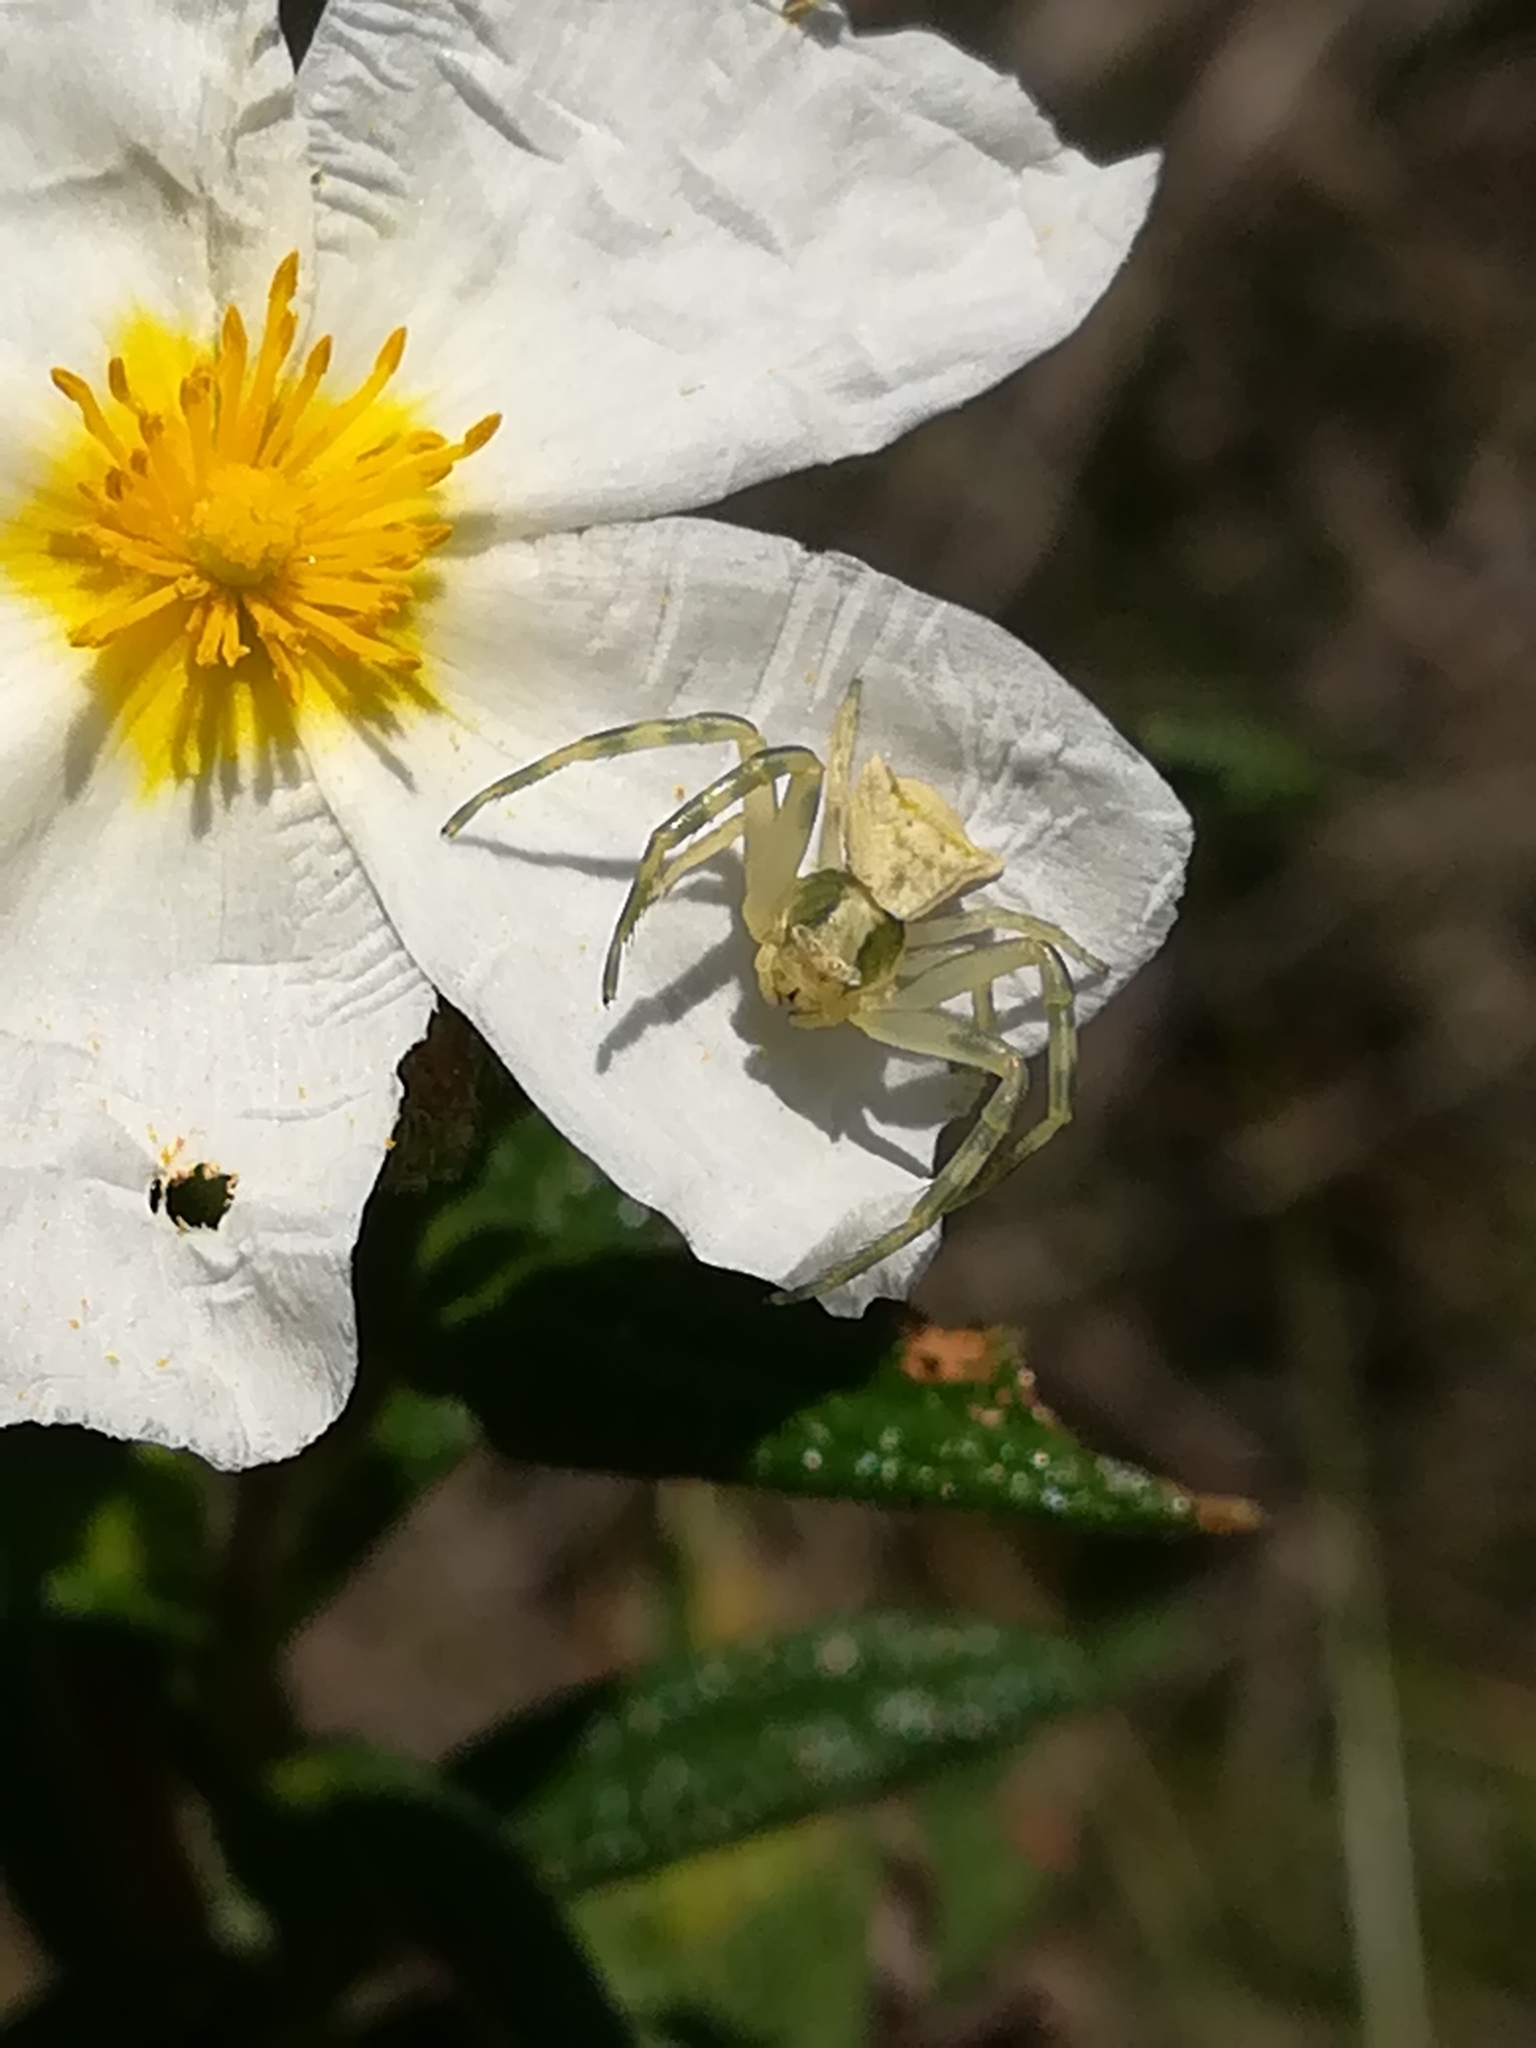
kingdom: Animalia
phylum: Arthropoda
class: Arachnida
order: Araneae
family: Thomisidae
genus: Thomisus
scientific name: Thomisus onustus
